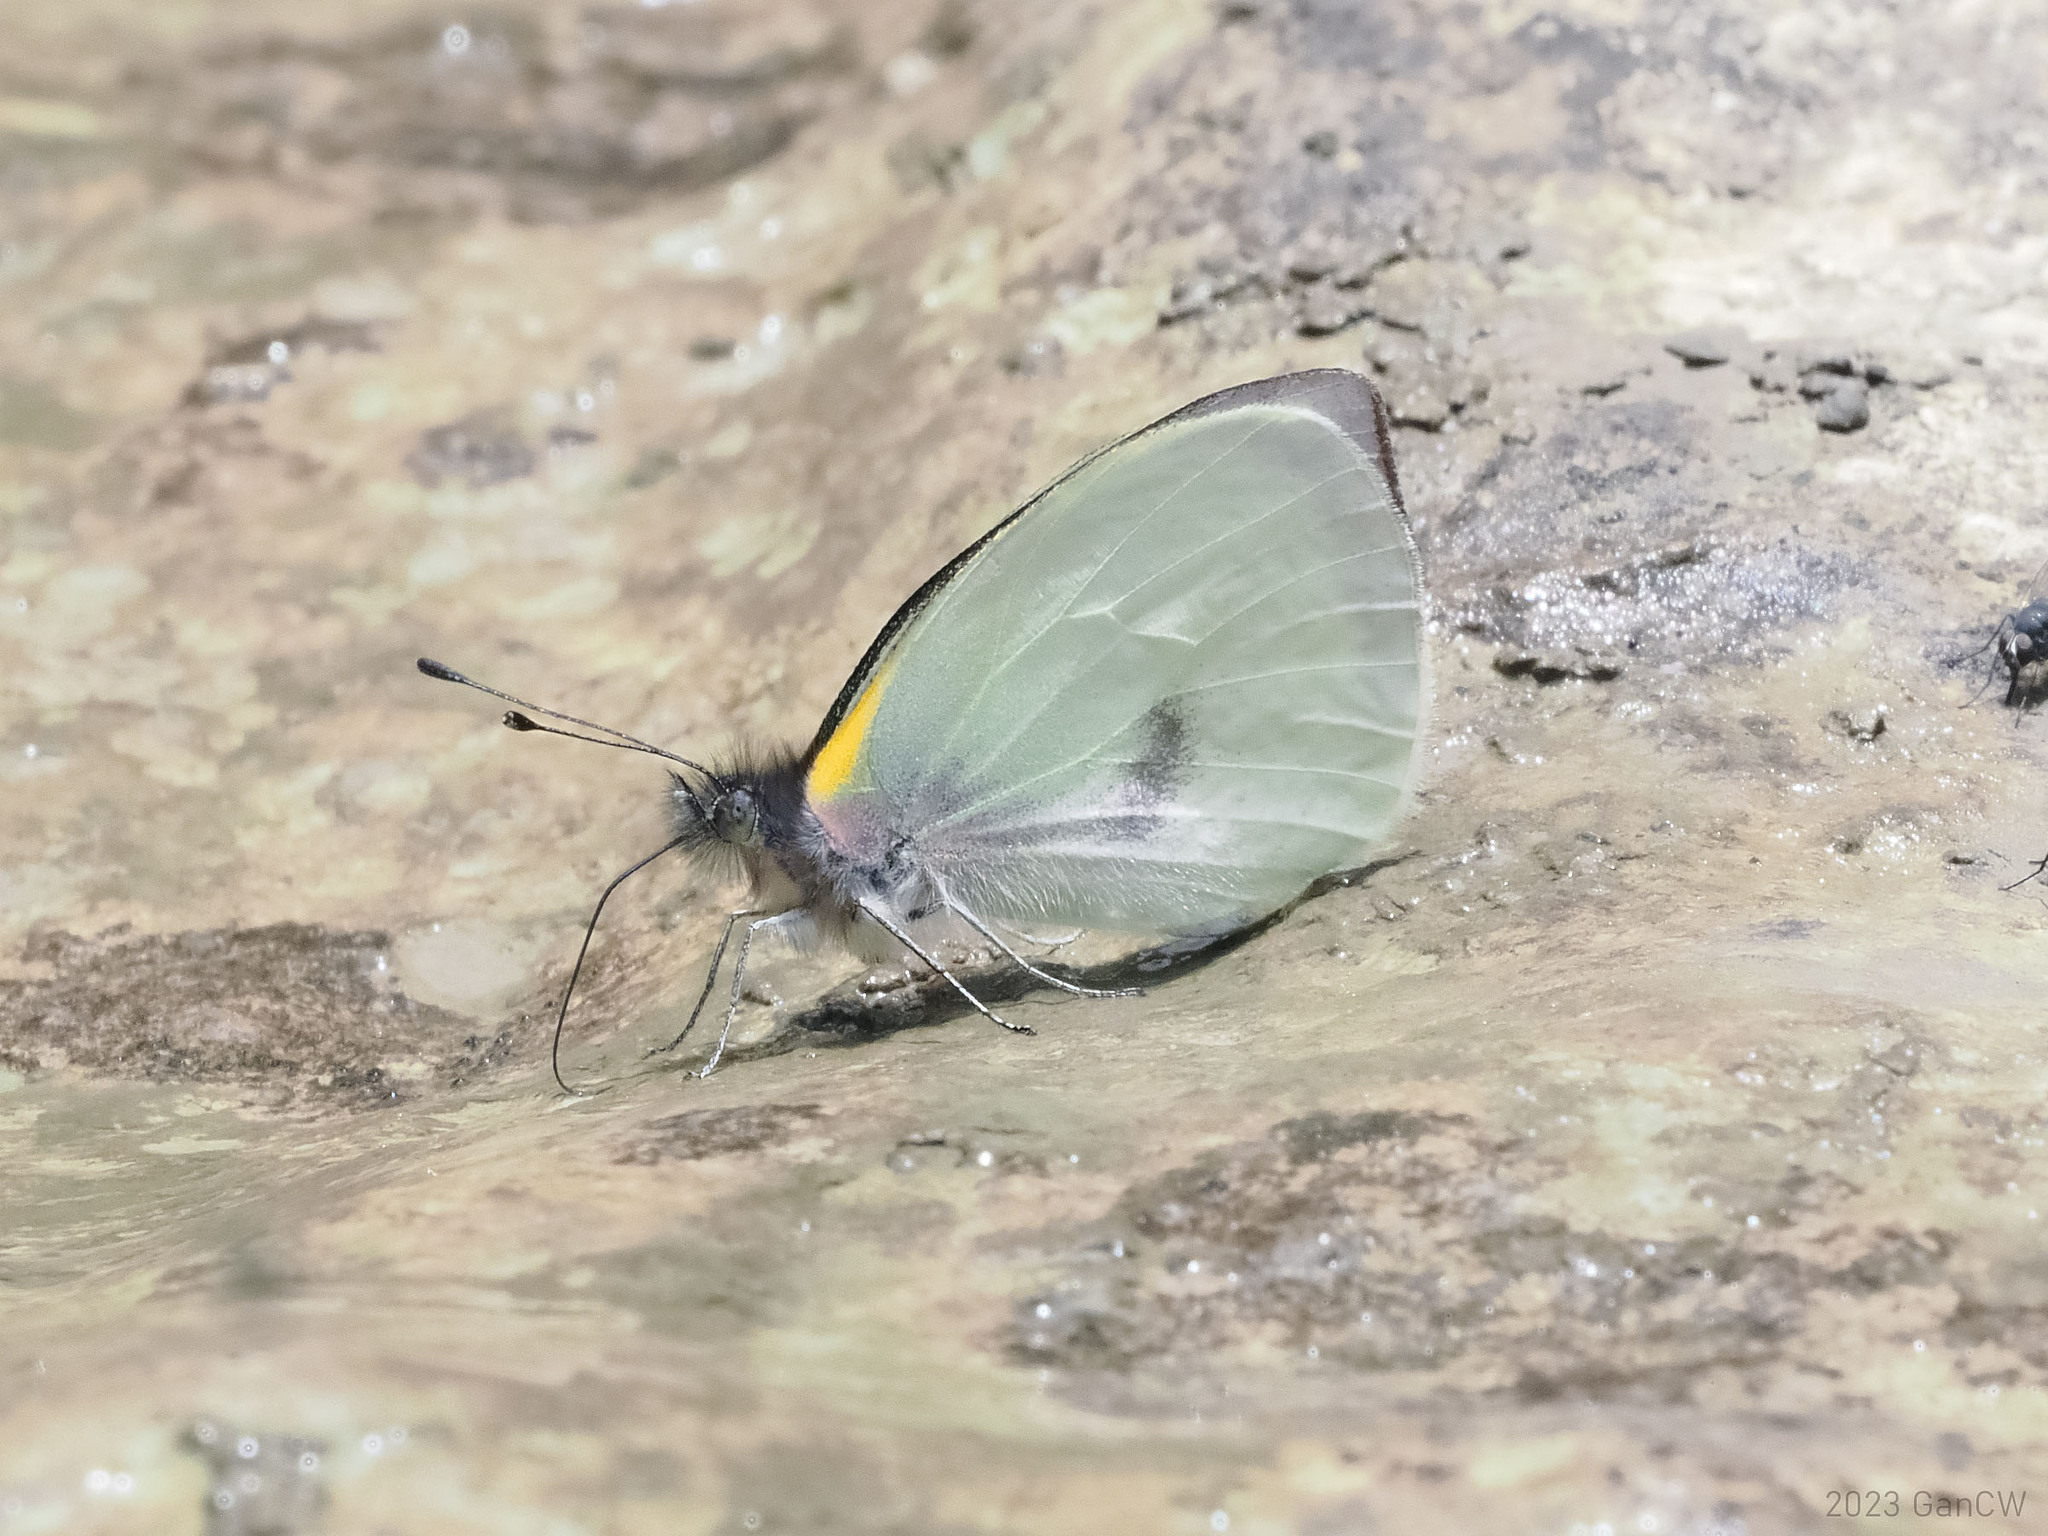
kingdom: Animalia
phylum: Arthropoda
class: Insecta
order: Lepidoptera
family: Pieridae
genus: Leuciacria
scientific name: Leuciacria acuta
